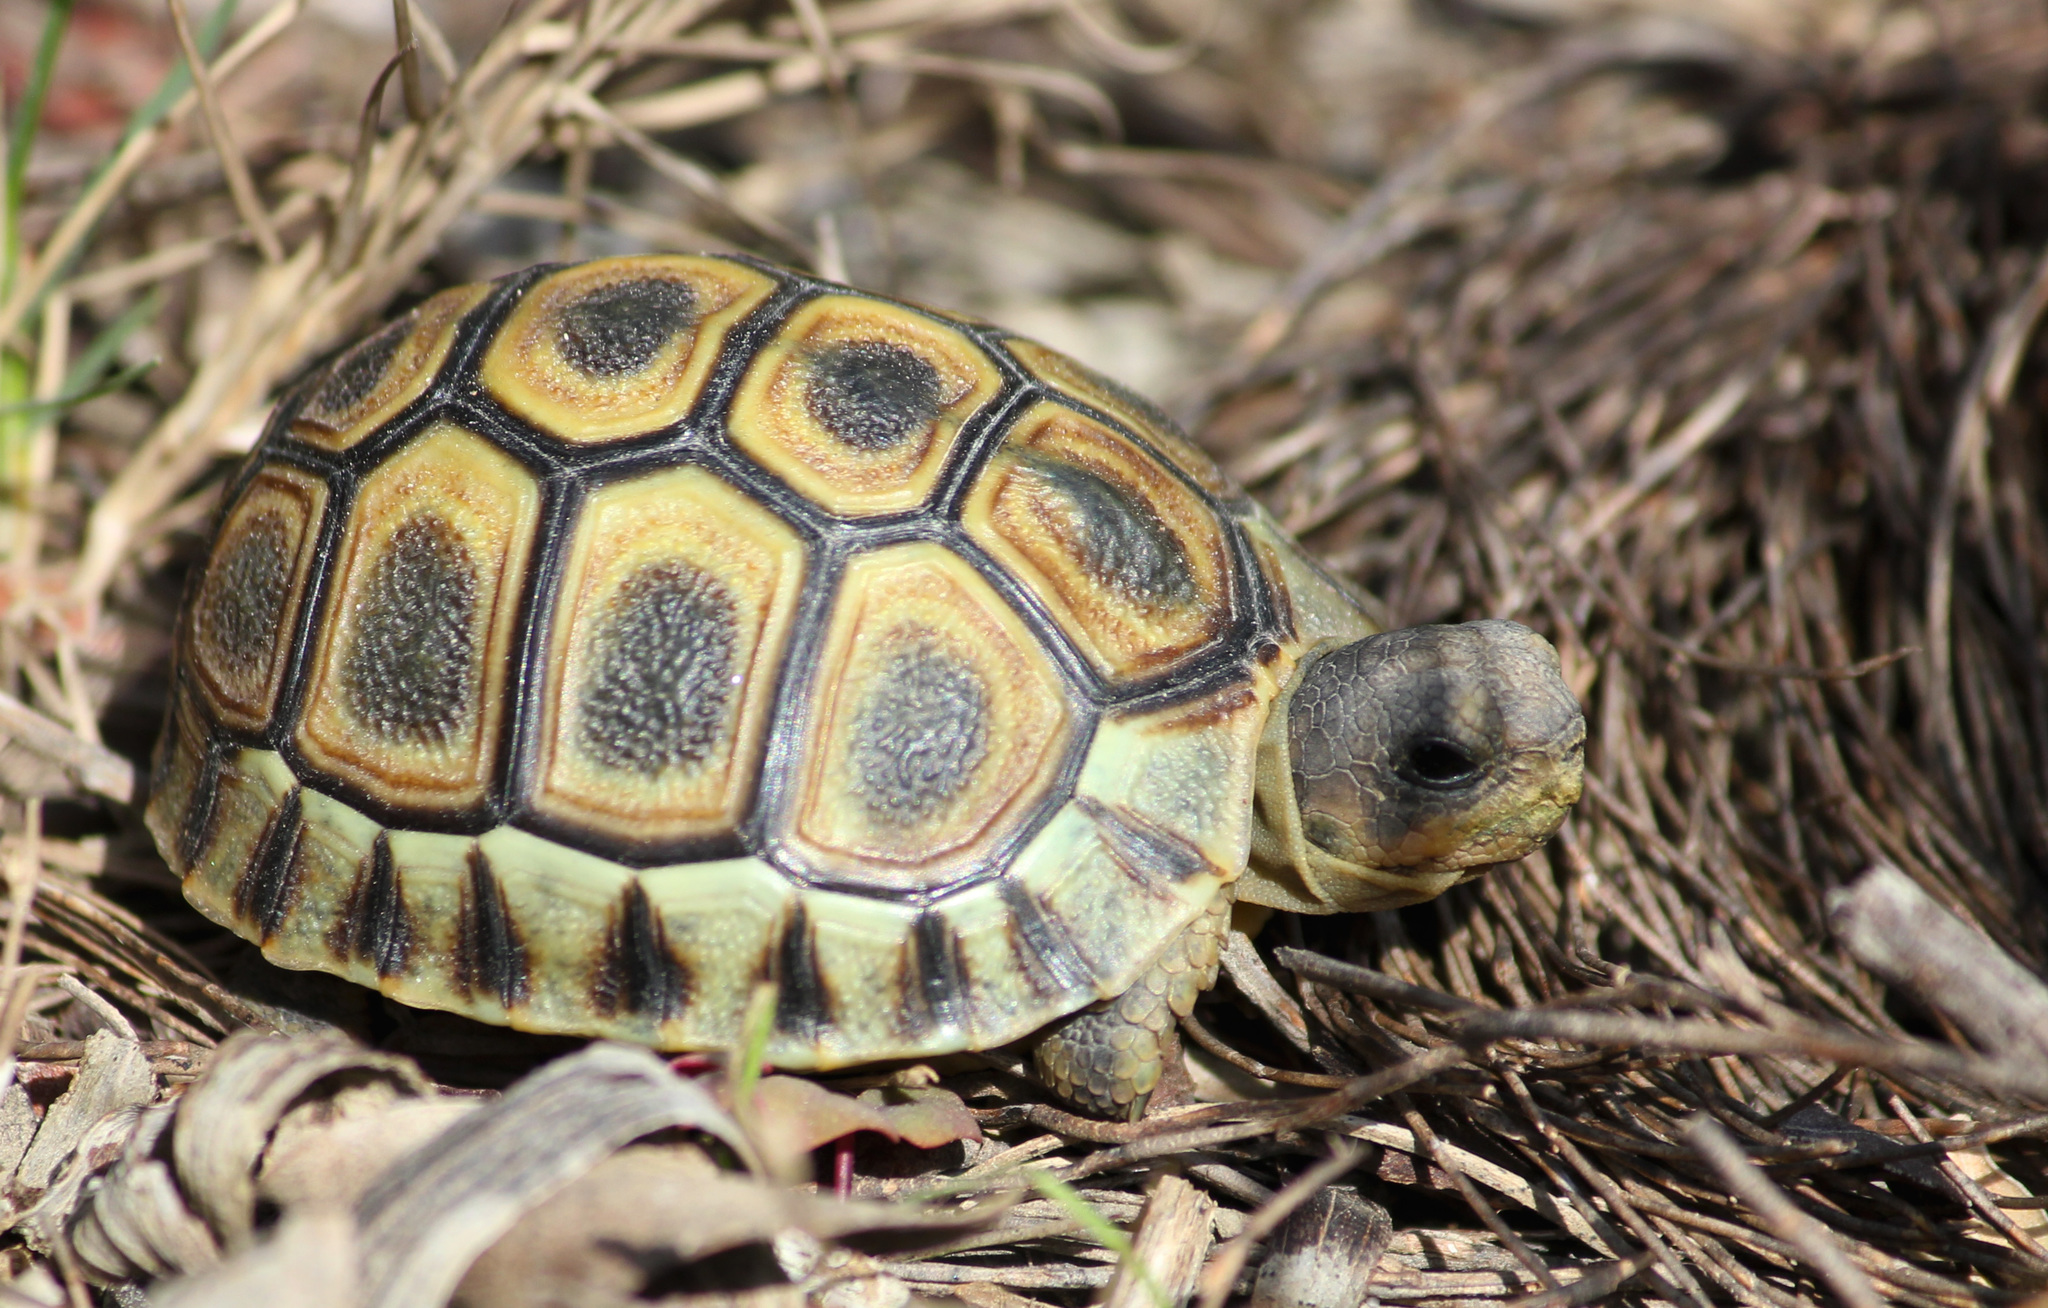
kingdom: Animalia
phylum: Chordata
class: Testudines
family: Testudinidae
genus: Chersina
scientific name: Chersina angulata
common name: South african bowsprit tortoise
